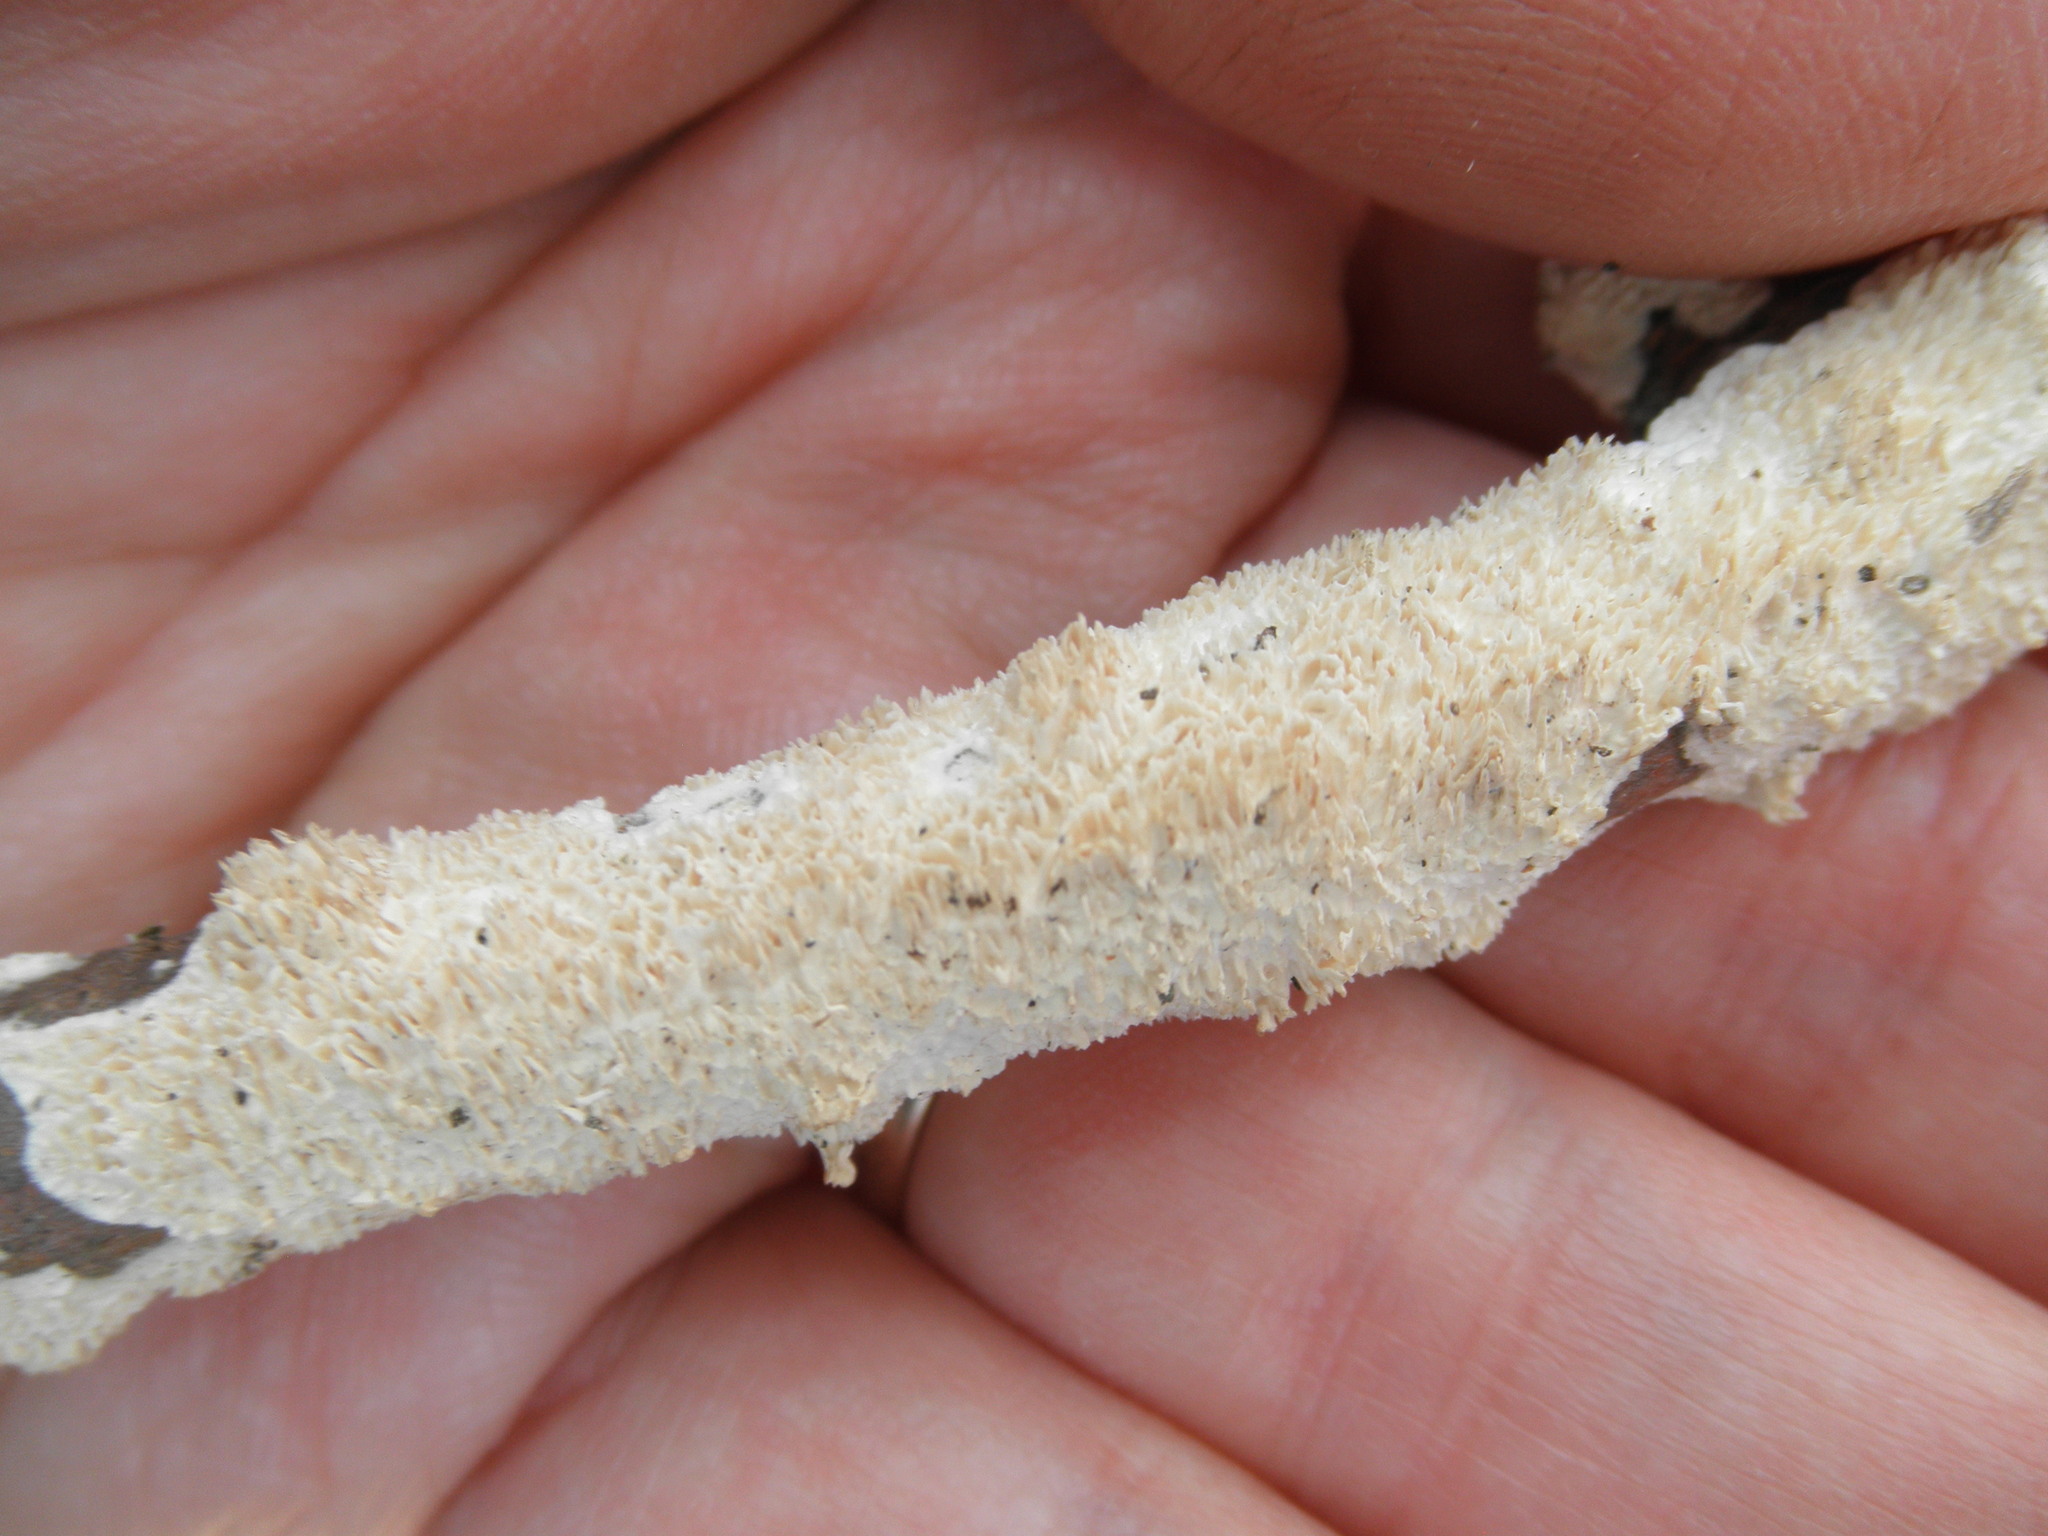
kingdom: Fungi
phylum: Basidiomycota
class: Agaricomycetes
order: Polyporales
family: Irpicaceae
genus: Irpex
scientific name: Irpex lacteus
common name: Milk-white toothed polypore
